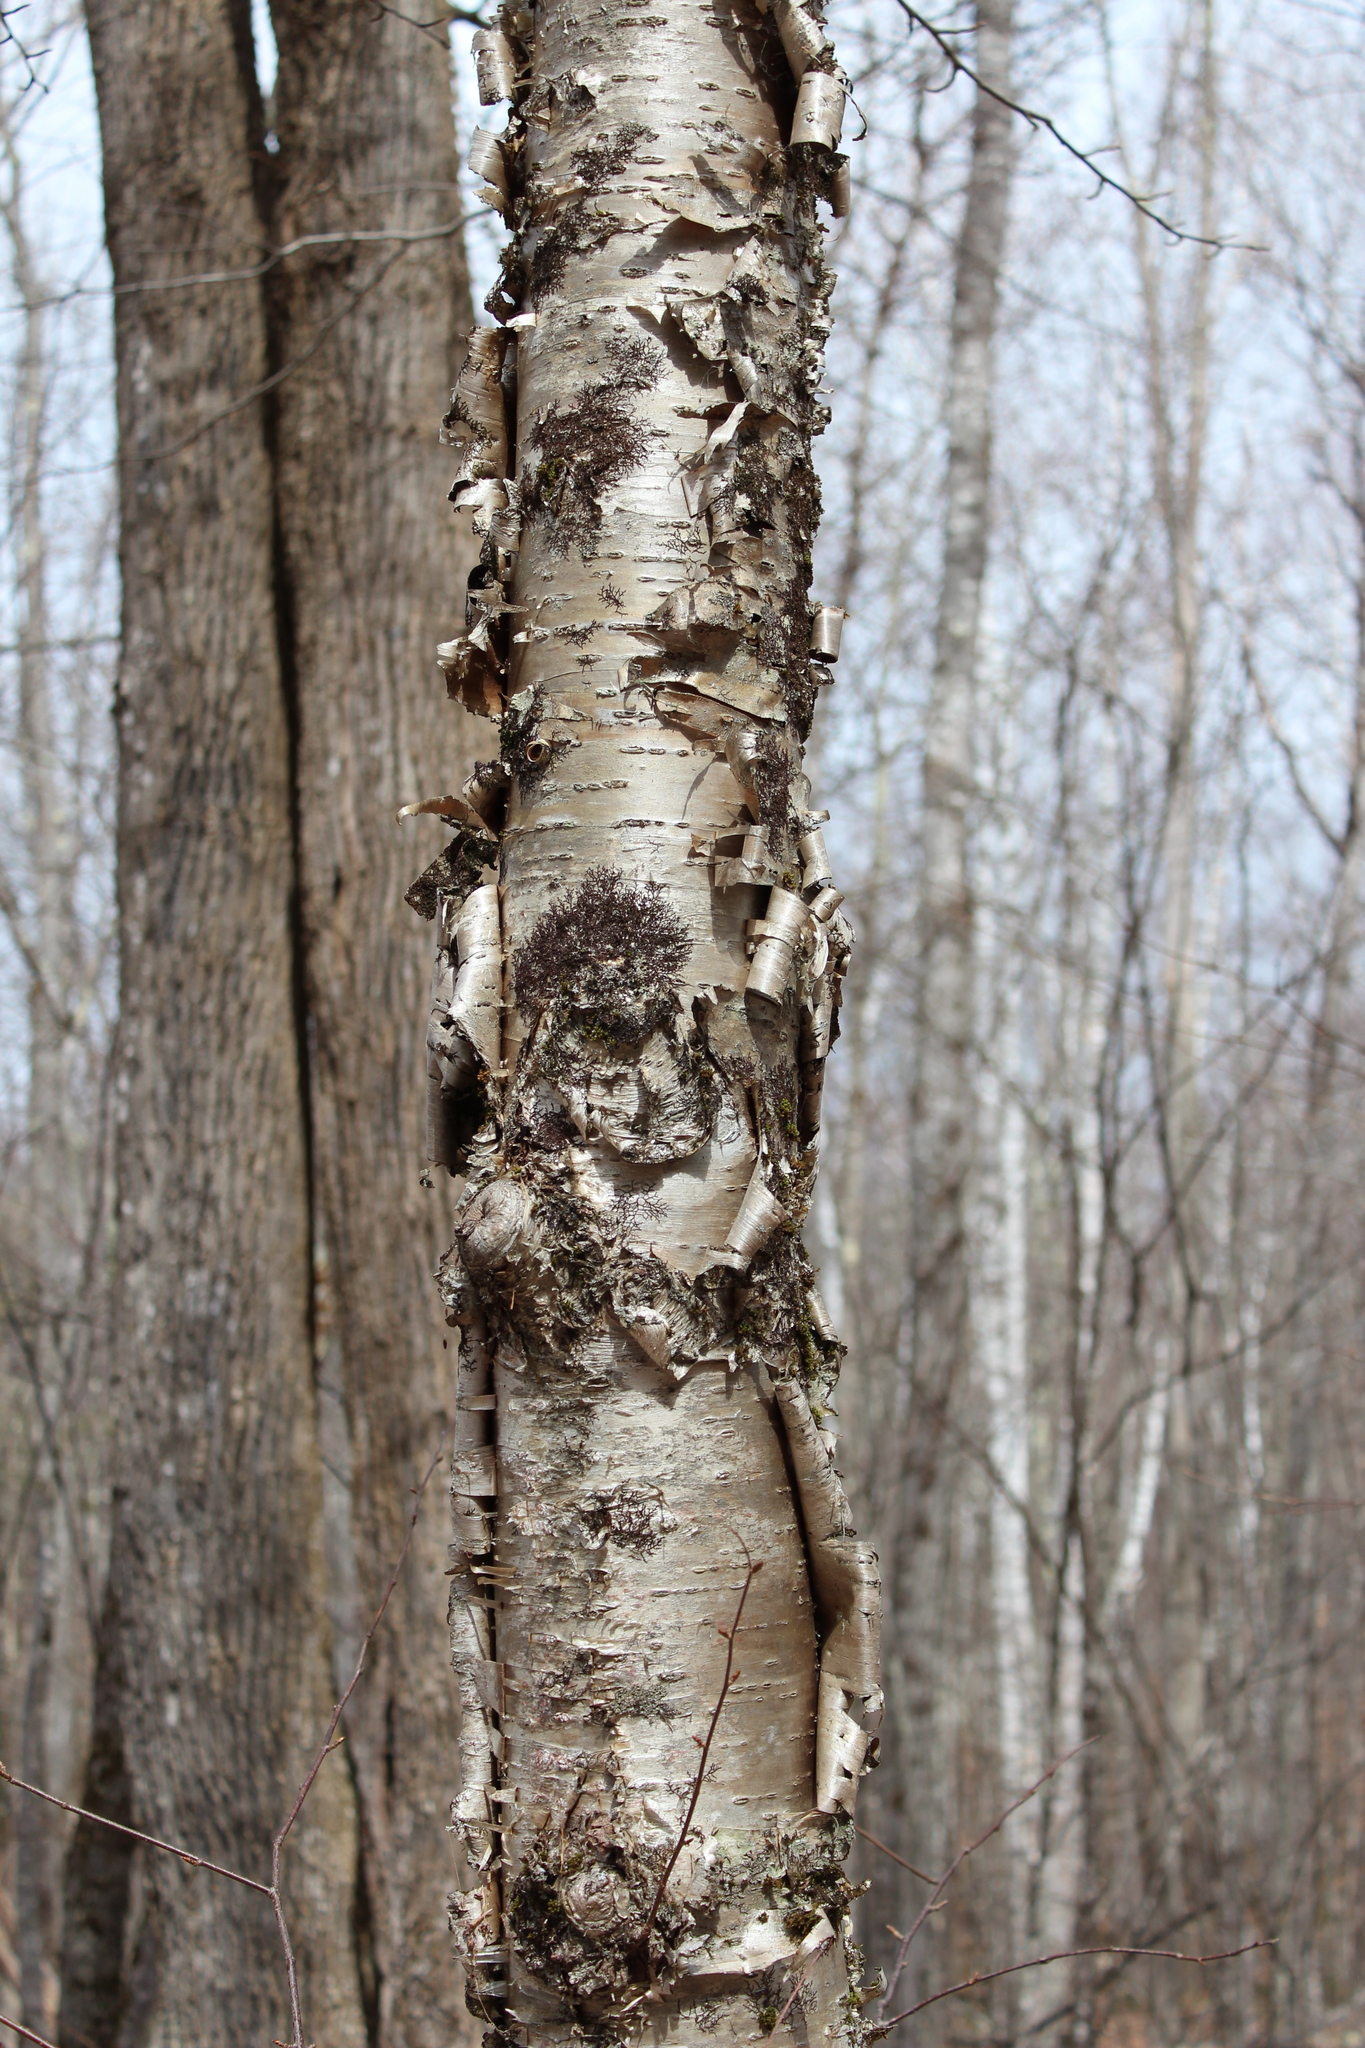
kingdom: Plantae
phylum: Tracheophyta
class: Magnoliopsida
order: Fagales
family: Betulaceae
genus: Betula
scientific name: Betula alleghaniensis
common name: Yellow birch
